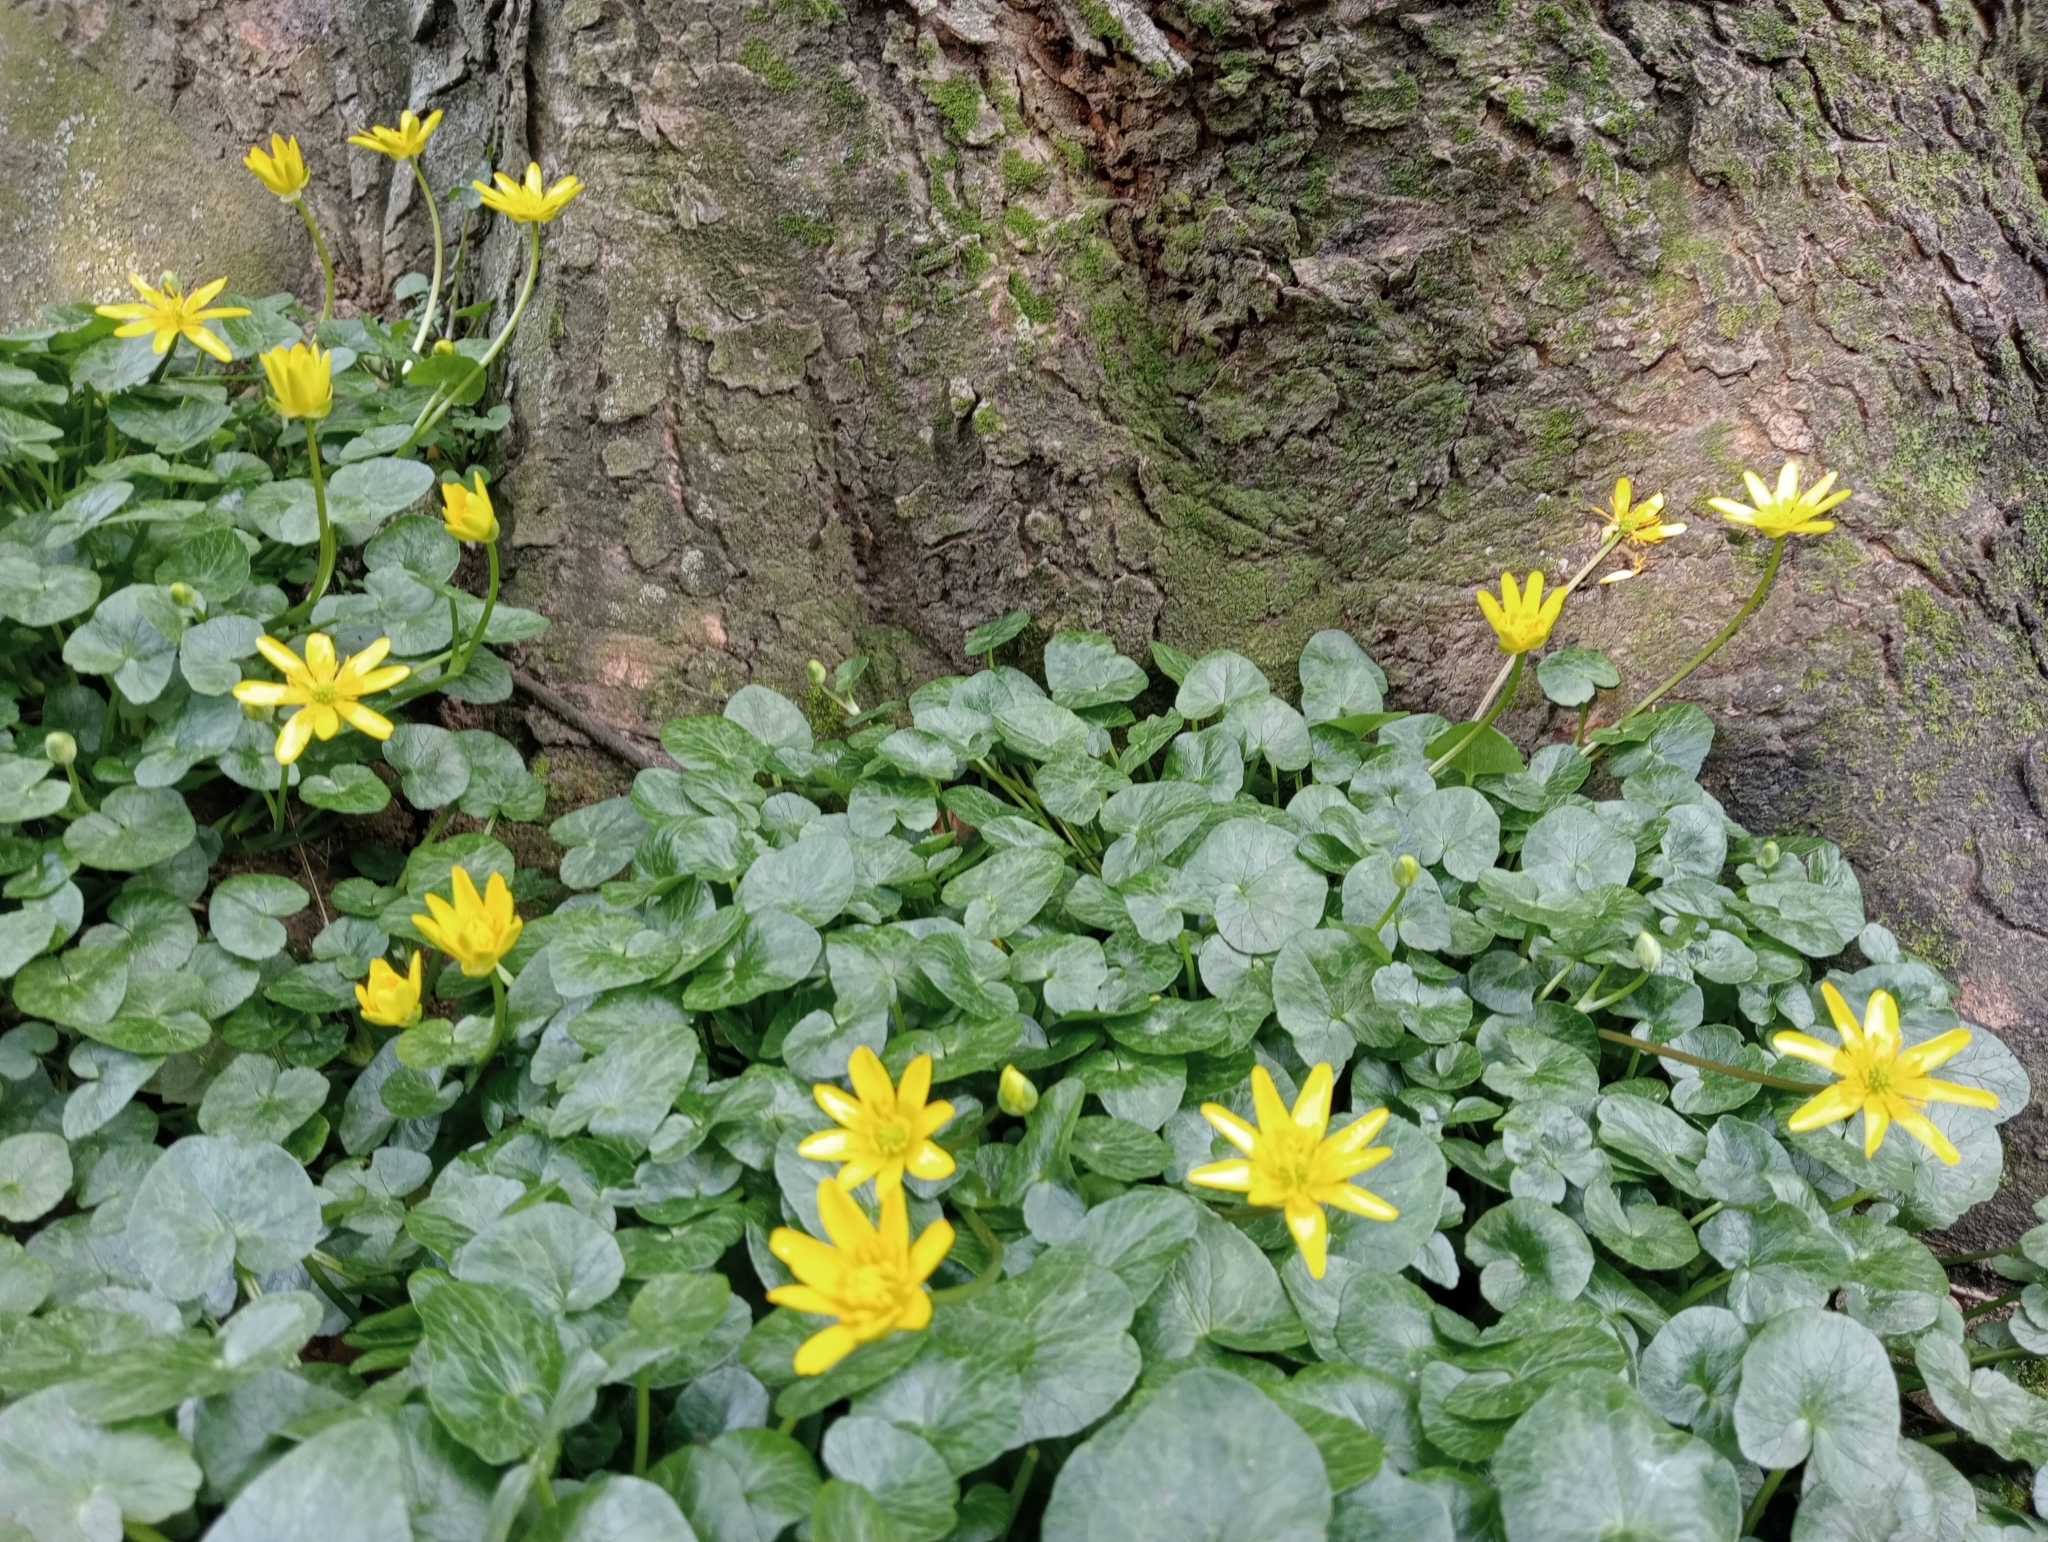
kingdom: Plantae
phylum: Tracheophyta
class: Magnoliopsida
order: Ranunculales
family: Ranunculaceae
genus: Ficaria
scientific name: Ficaria verna
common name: Lesser celandine
